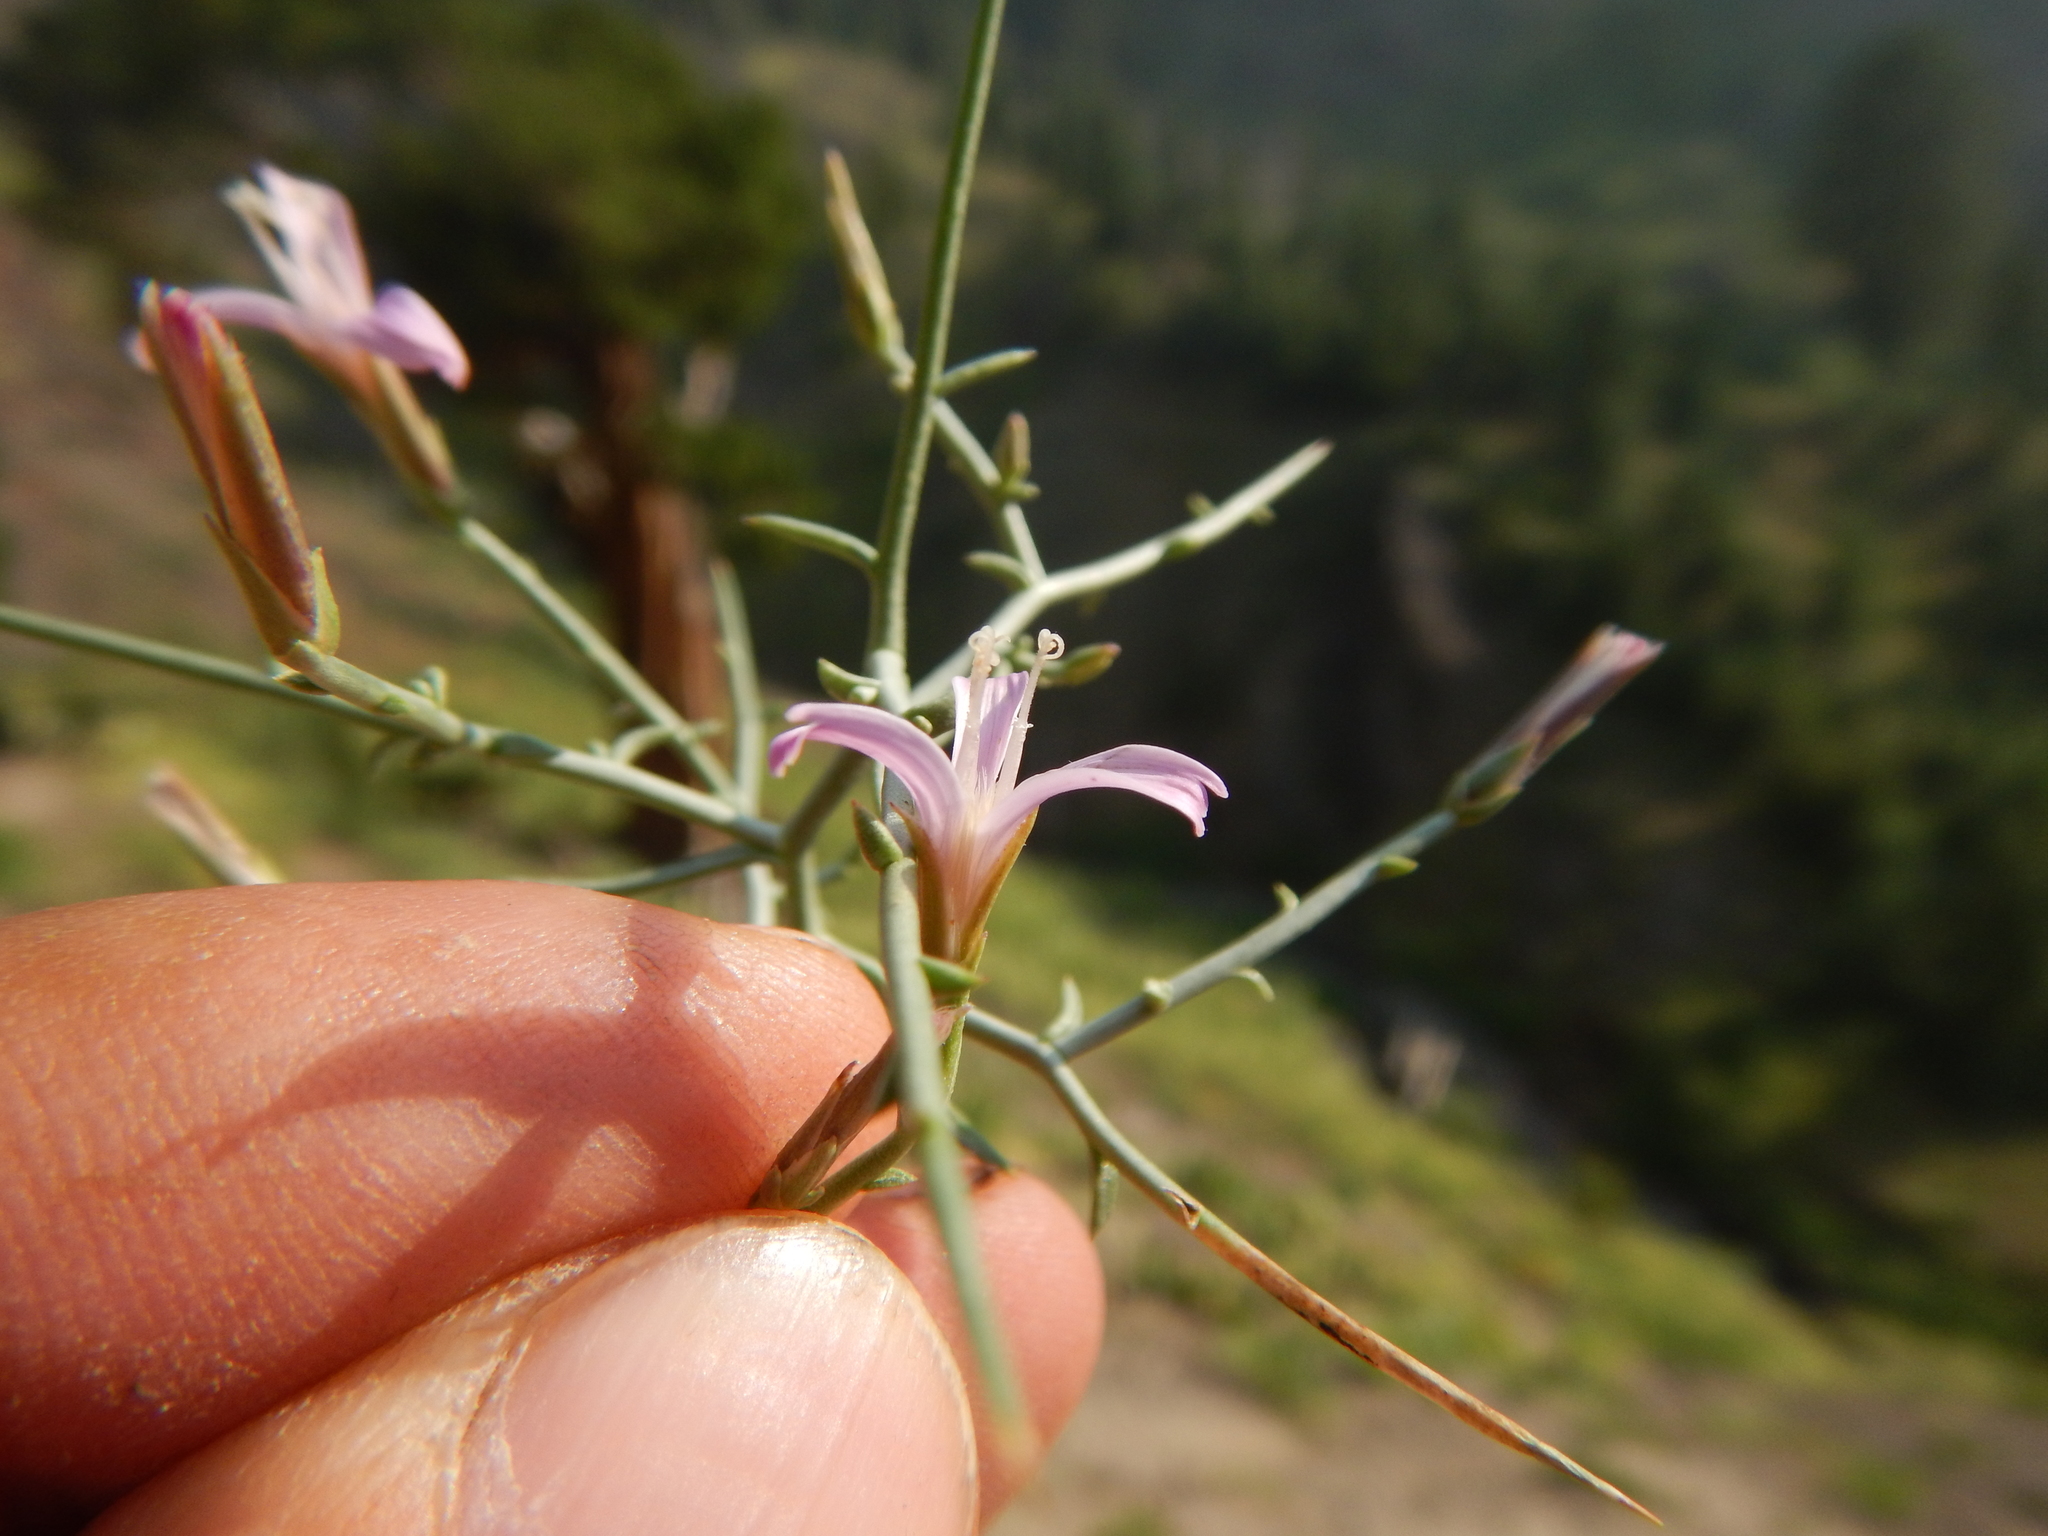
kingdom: Plantae
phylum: Tracheophyta
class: Magnoliopsida
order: Asterales
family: Asteraceae
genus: Pleiacanthus
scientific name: Pleiacanthus spinosus
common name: Thorny skeleton-weed
